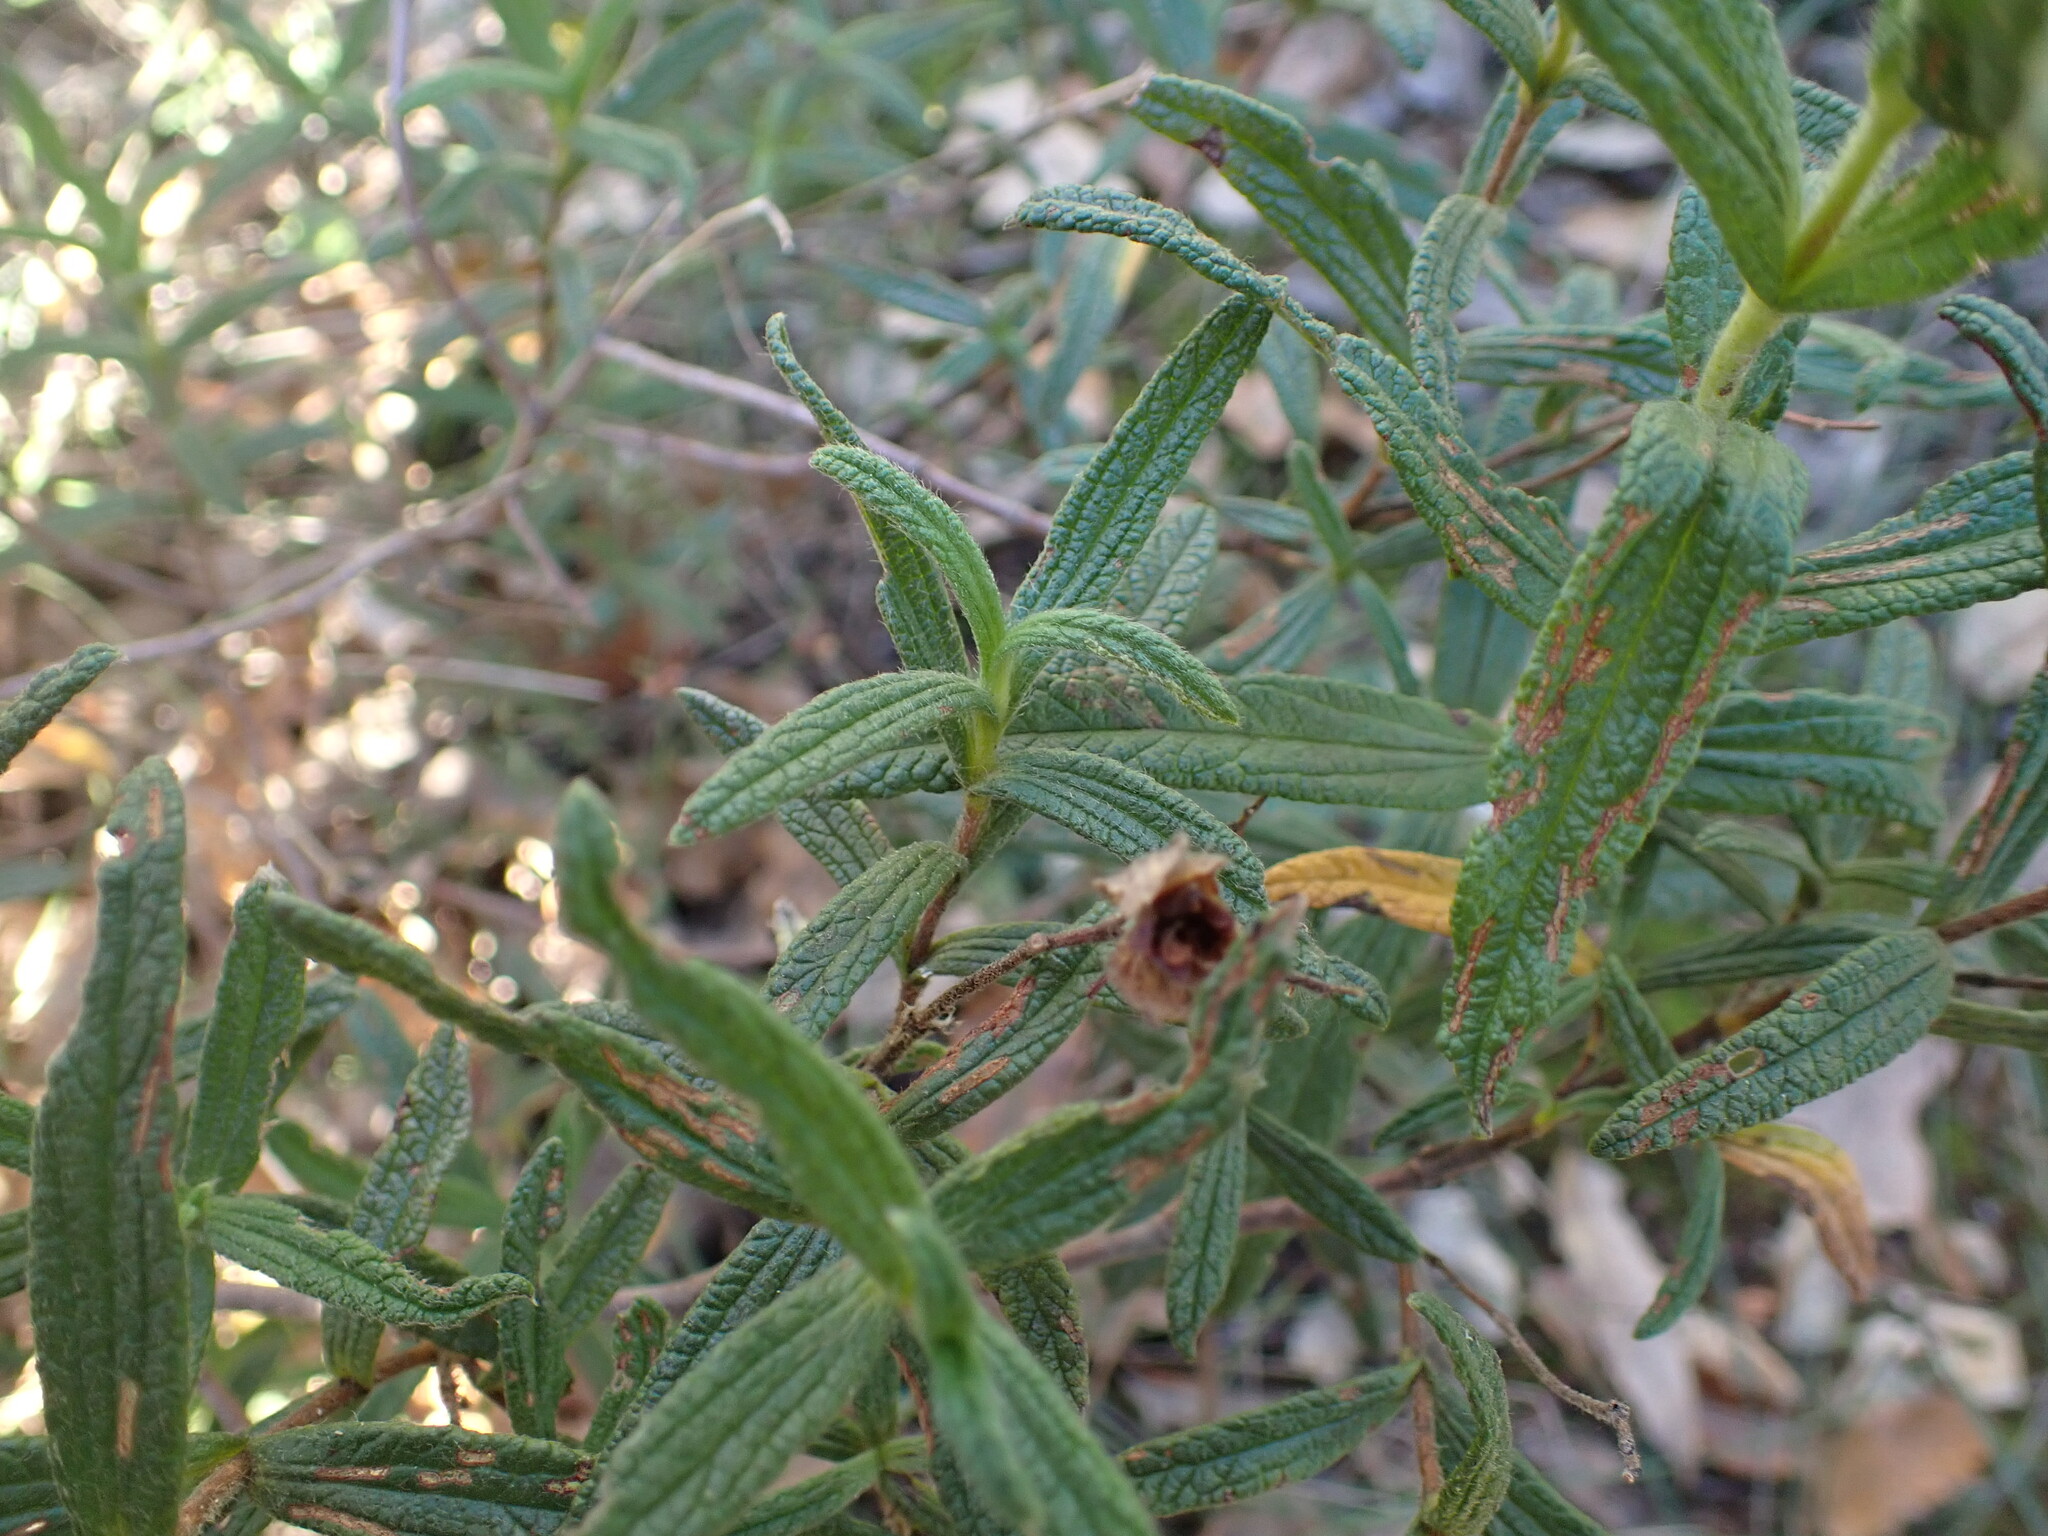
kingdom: Plantae
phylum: Tracheophyta
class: Magnoliopsida
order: Malvales
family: Cistaceae
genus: Cistus
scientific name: Cistus monspeliensis
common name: Montpelier cistus
